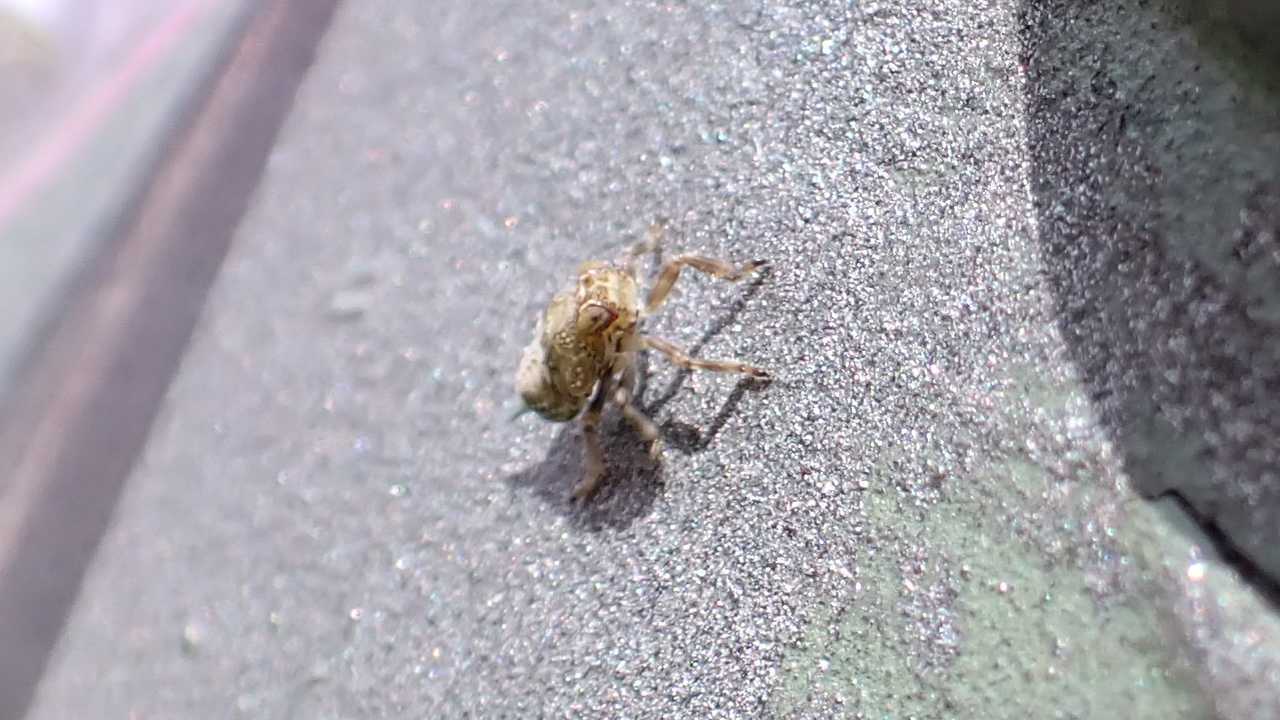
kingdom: Animalia
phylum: Arthropoda
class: Insecta
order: Hemiptera
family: Issidae
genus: Issus
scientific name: Issus coleoptratus
